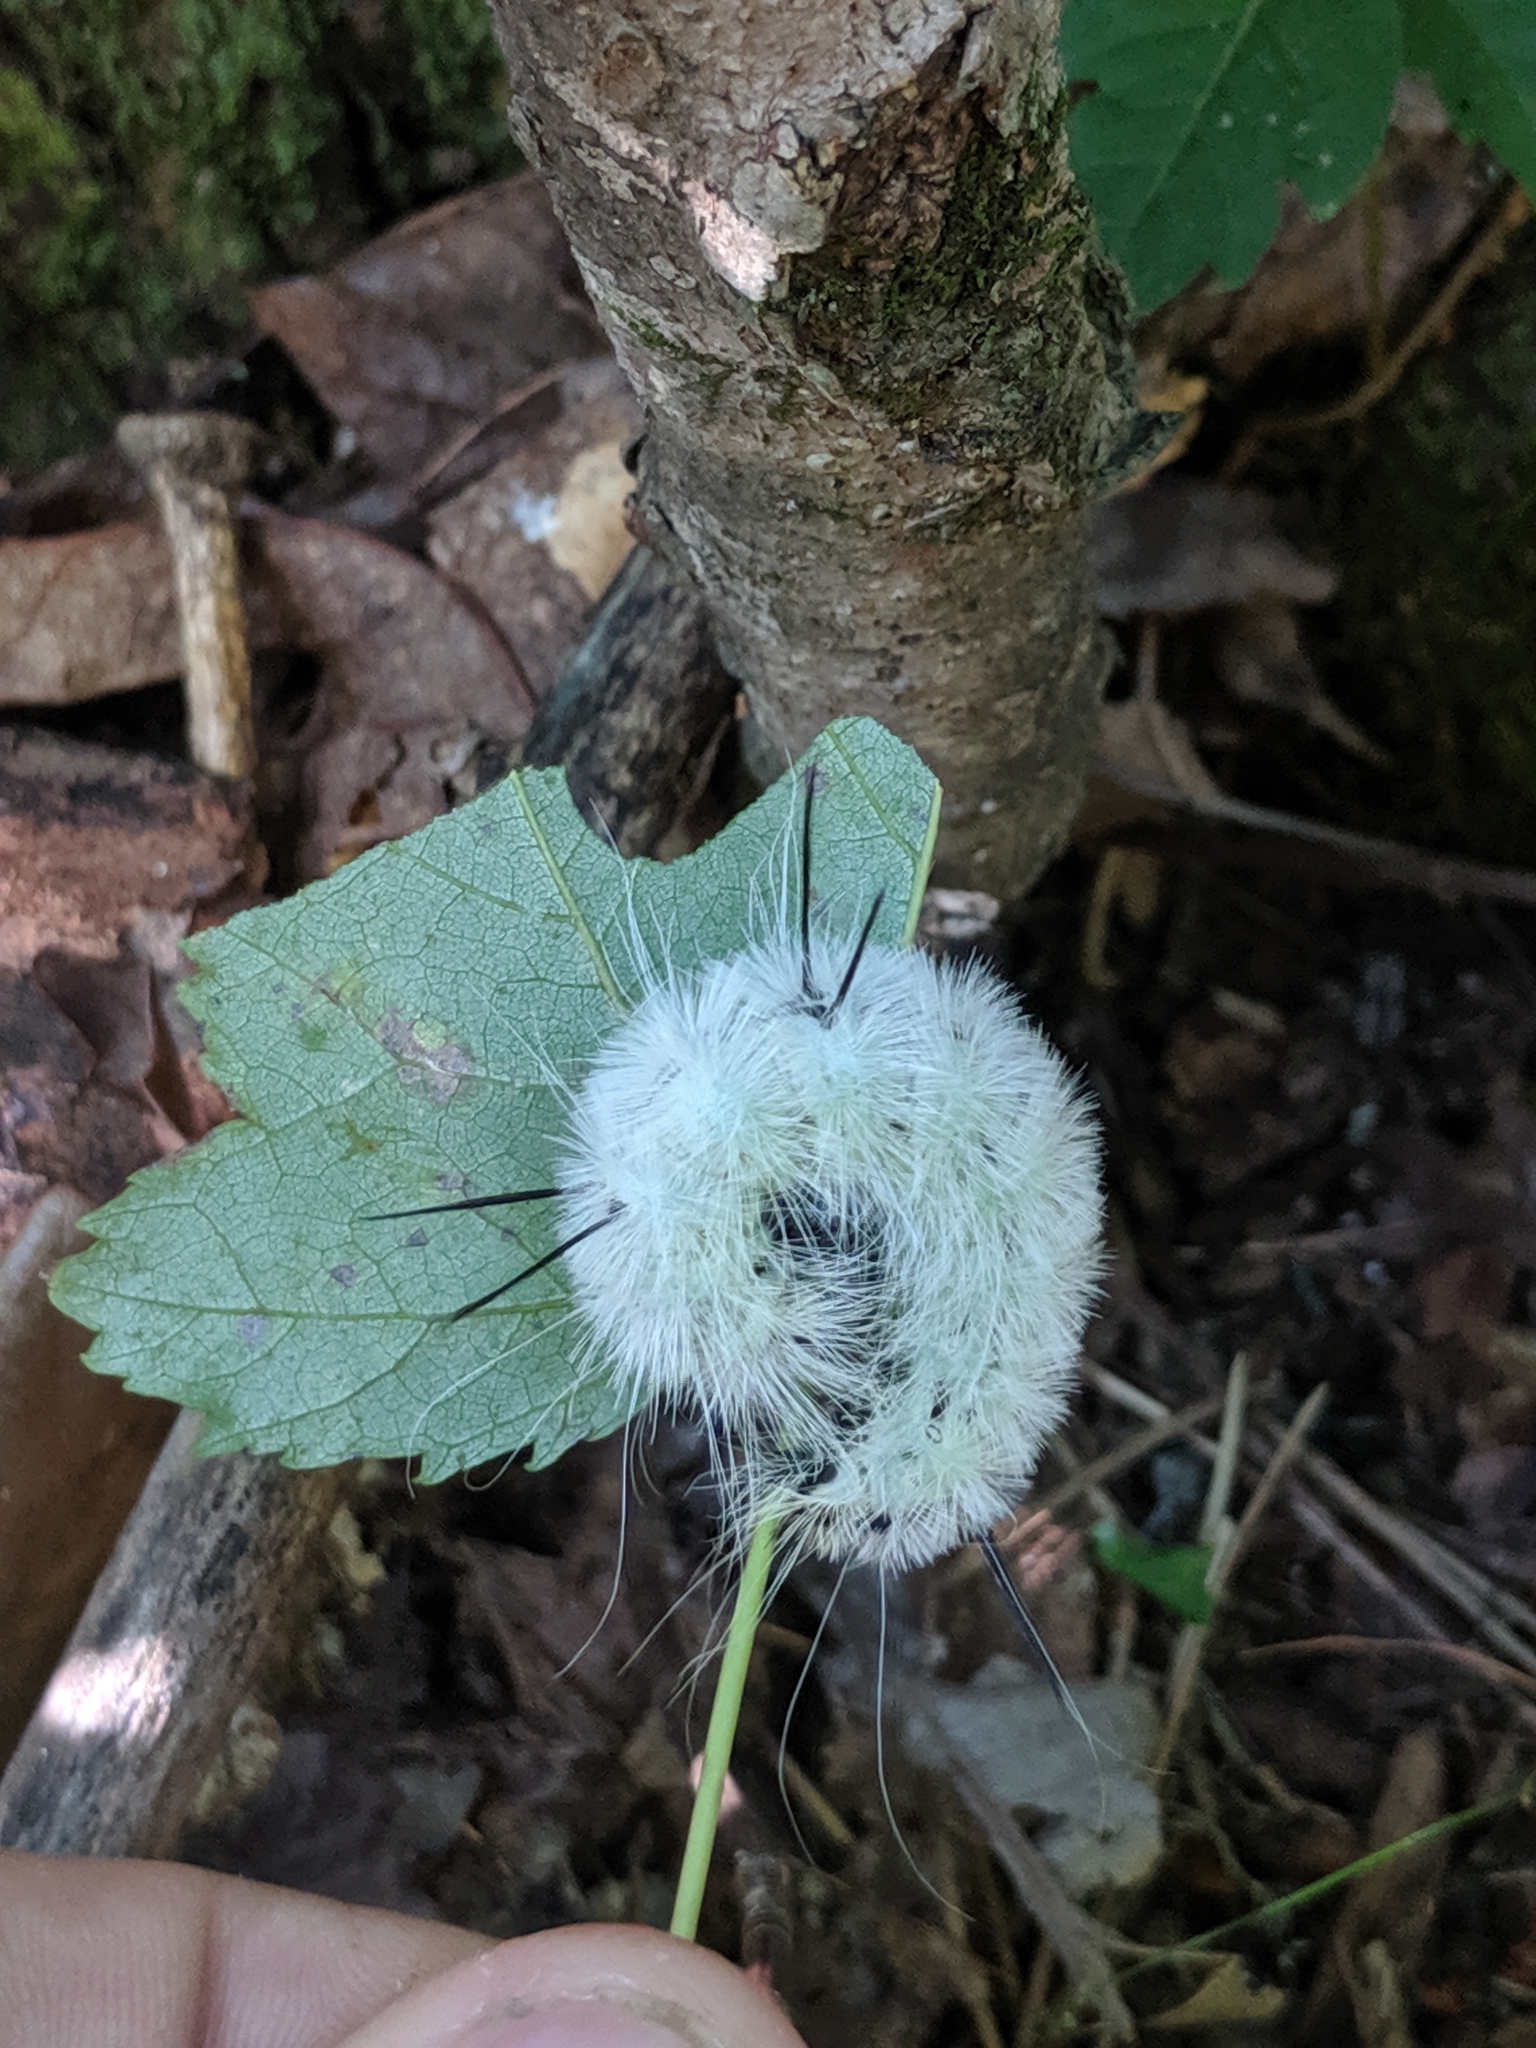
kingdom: Animalia
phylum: Arthropoda
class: Insecta
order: Lepidoptera
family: Noctuidae
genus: Acronicta
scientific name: Acronicta americana
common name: American dagger
